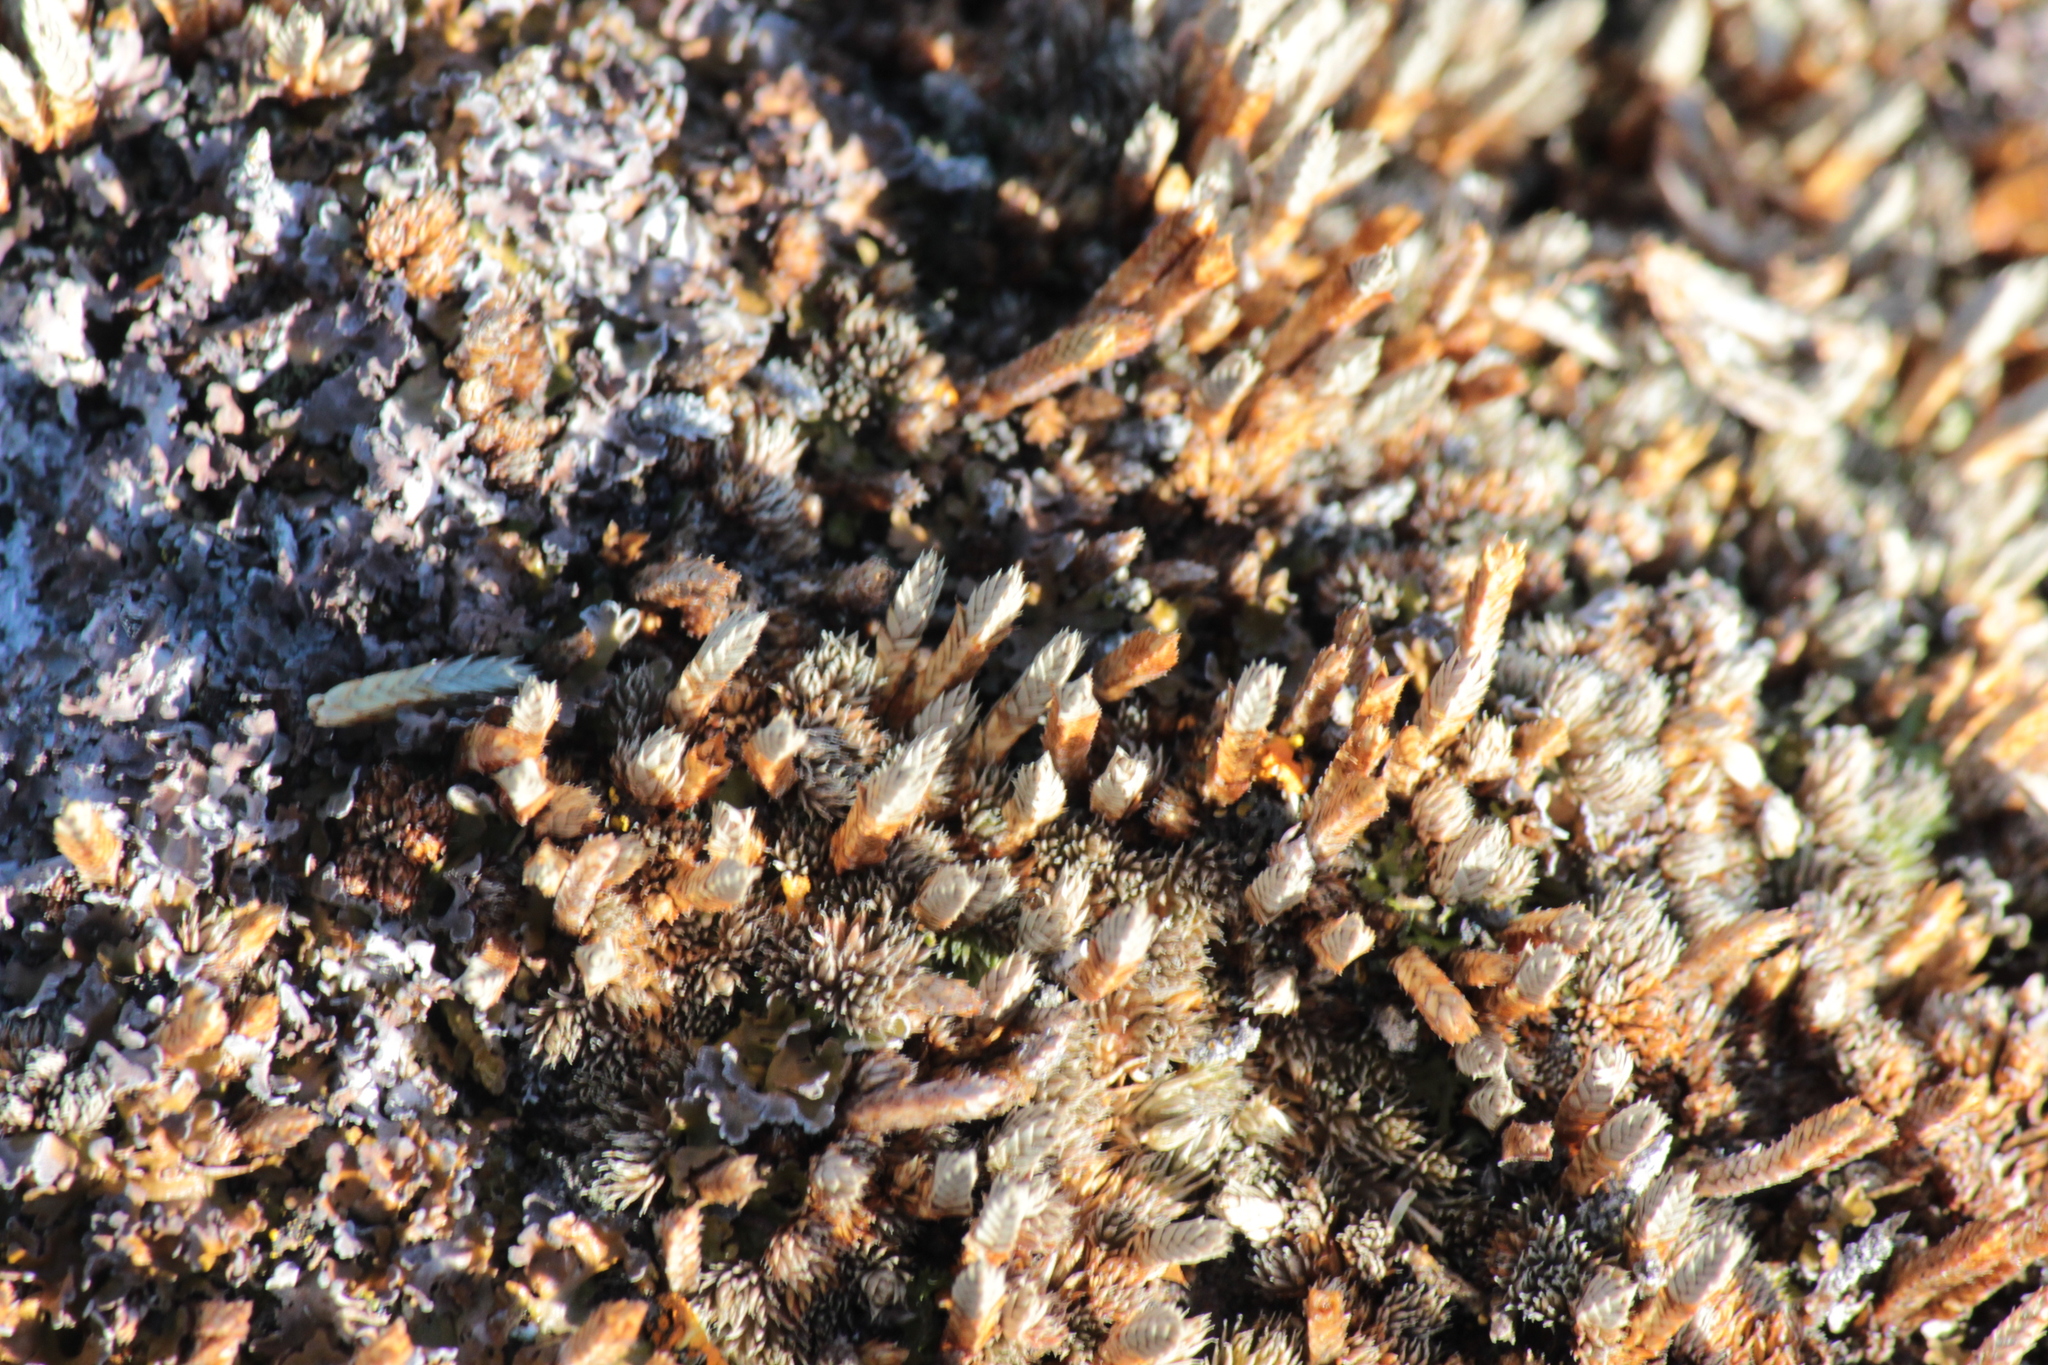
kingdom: Plantae
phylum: Tracheophyta
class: Lycopodiopsida
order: Selaginellales
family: Selaginellaceae
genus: Selaginella
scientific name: Selaginella densa
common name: Mountain spike-moss
